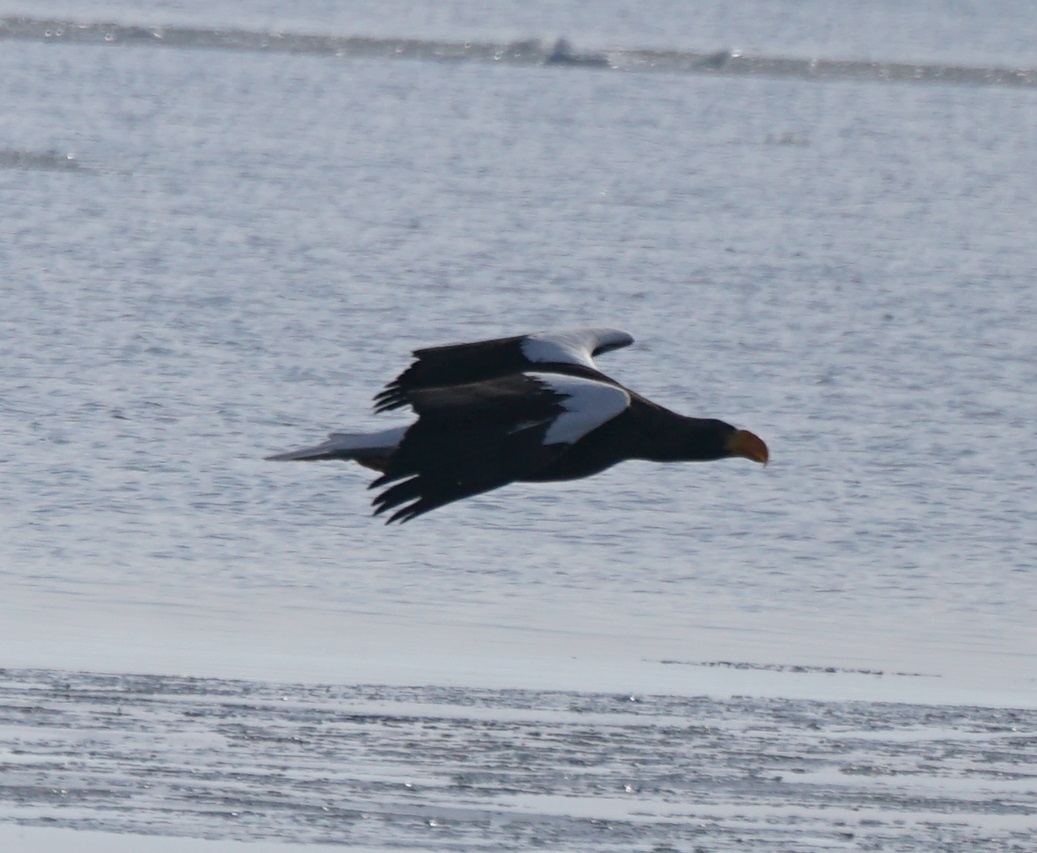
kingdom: Animalia
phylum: Chordata
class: Aves
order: Accipitriformes
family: Accipitridae
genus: Haliaeetus
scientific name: Haliaeetus pelagicus
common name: Steller's sea eagle
